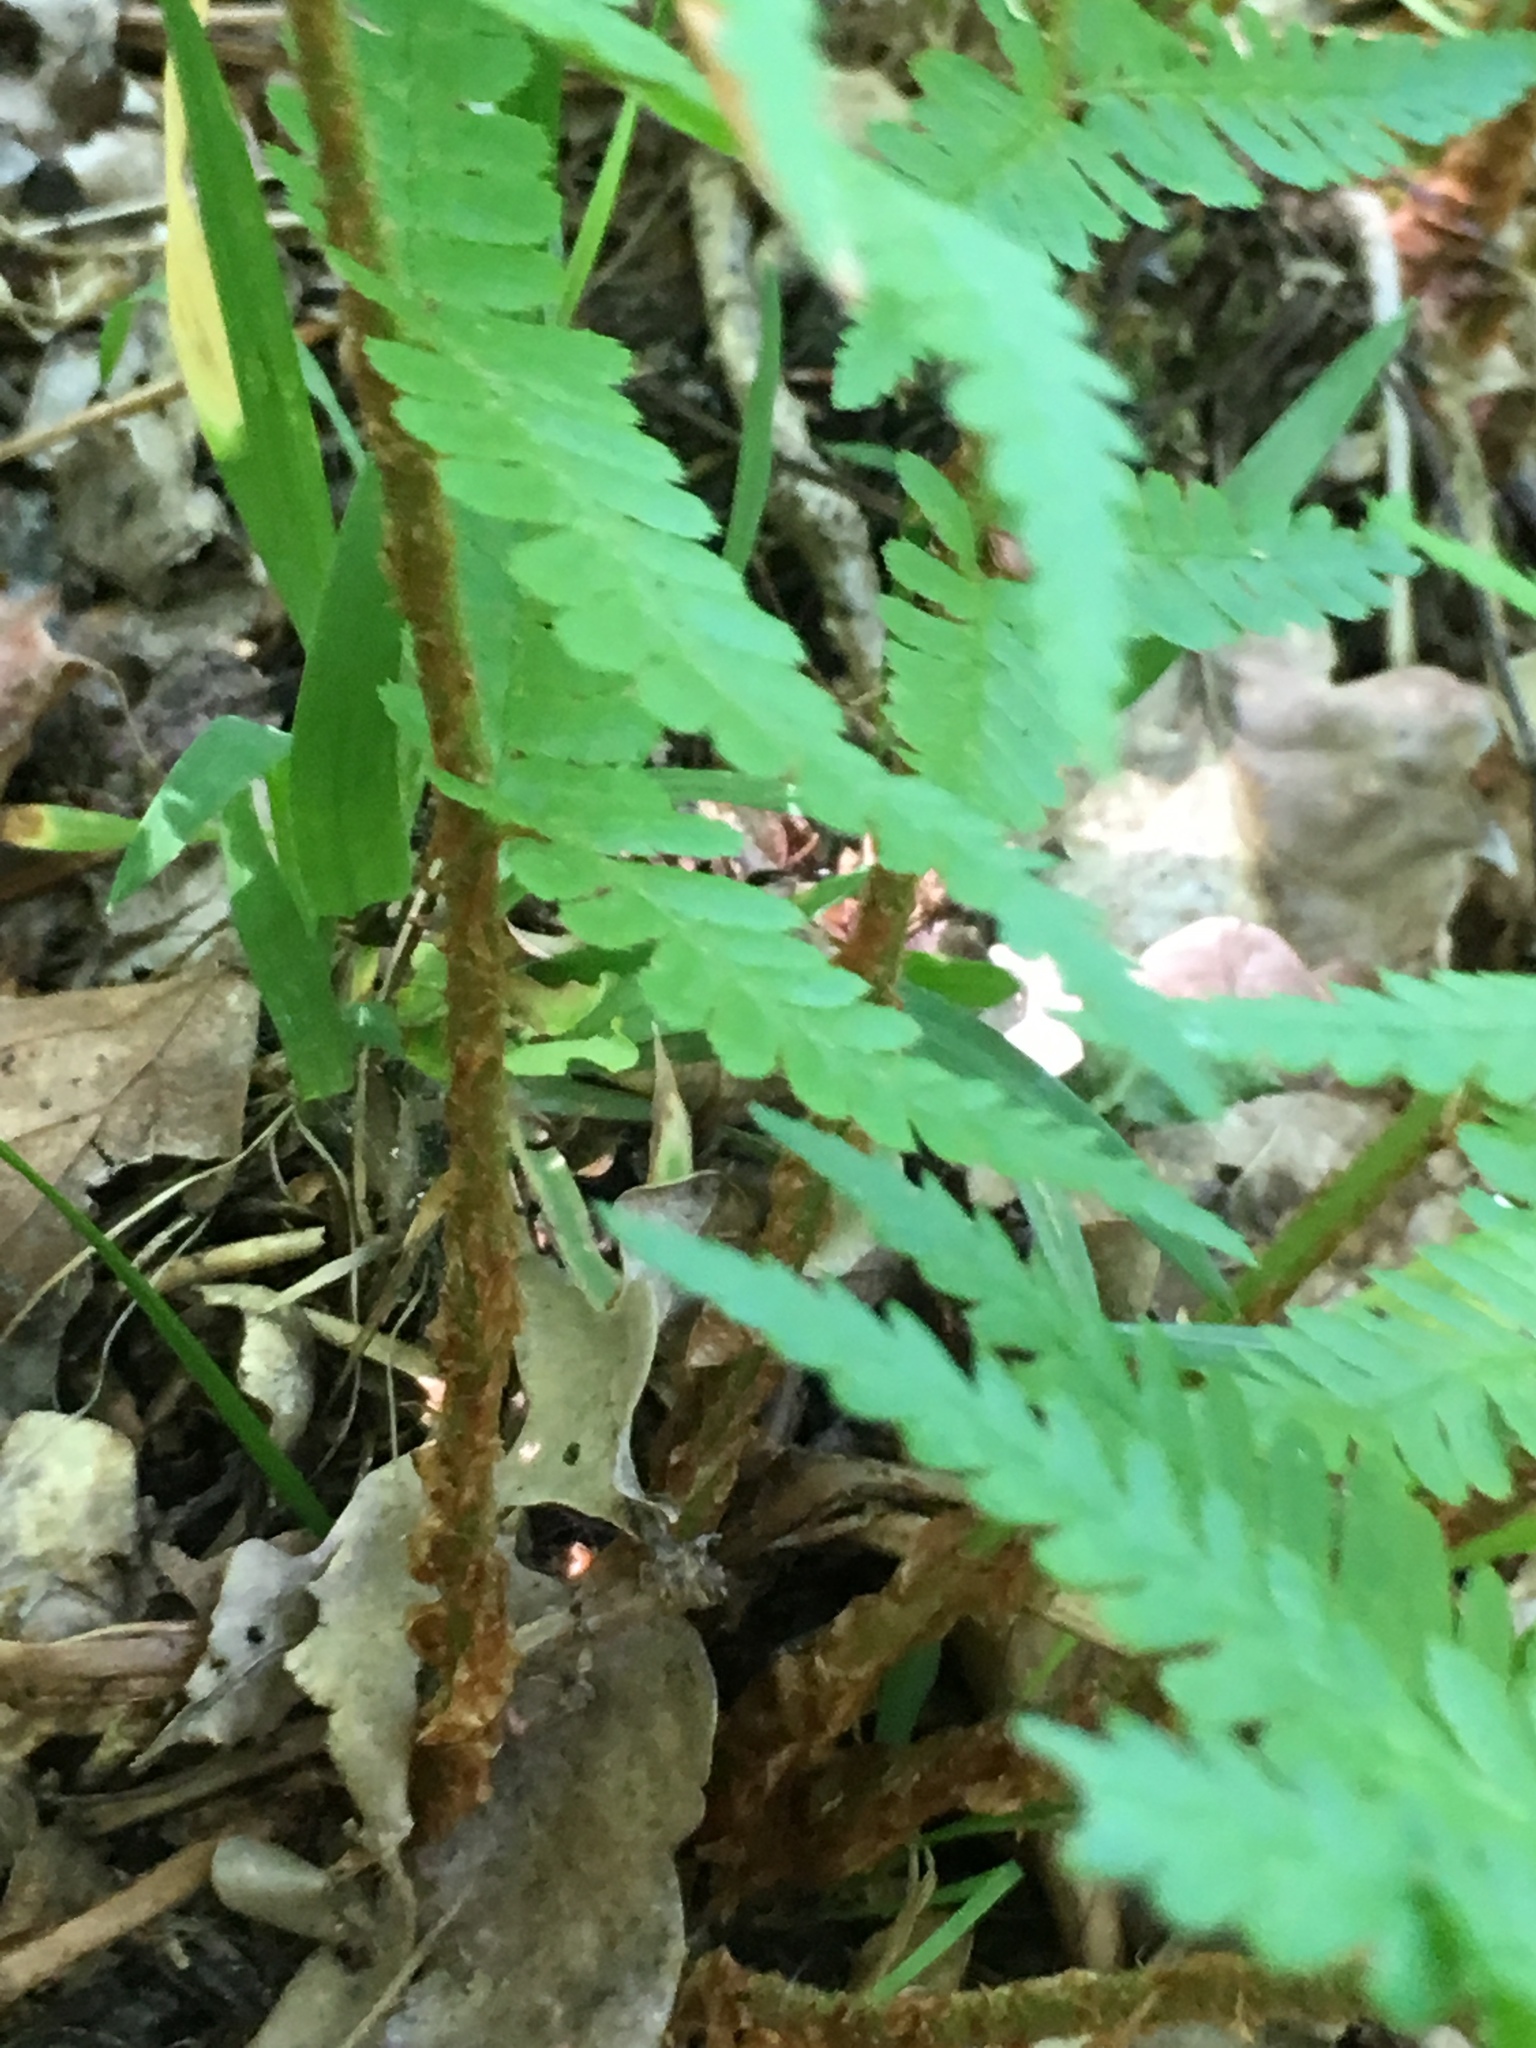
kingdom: Plantae
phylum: Tracheophyta
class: Polypodiopsida
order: Polypodiales
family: Dryopteridaceae
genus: Dryopteris
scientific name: Dryopteris filix-mas
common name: Male fern
